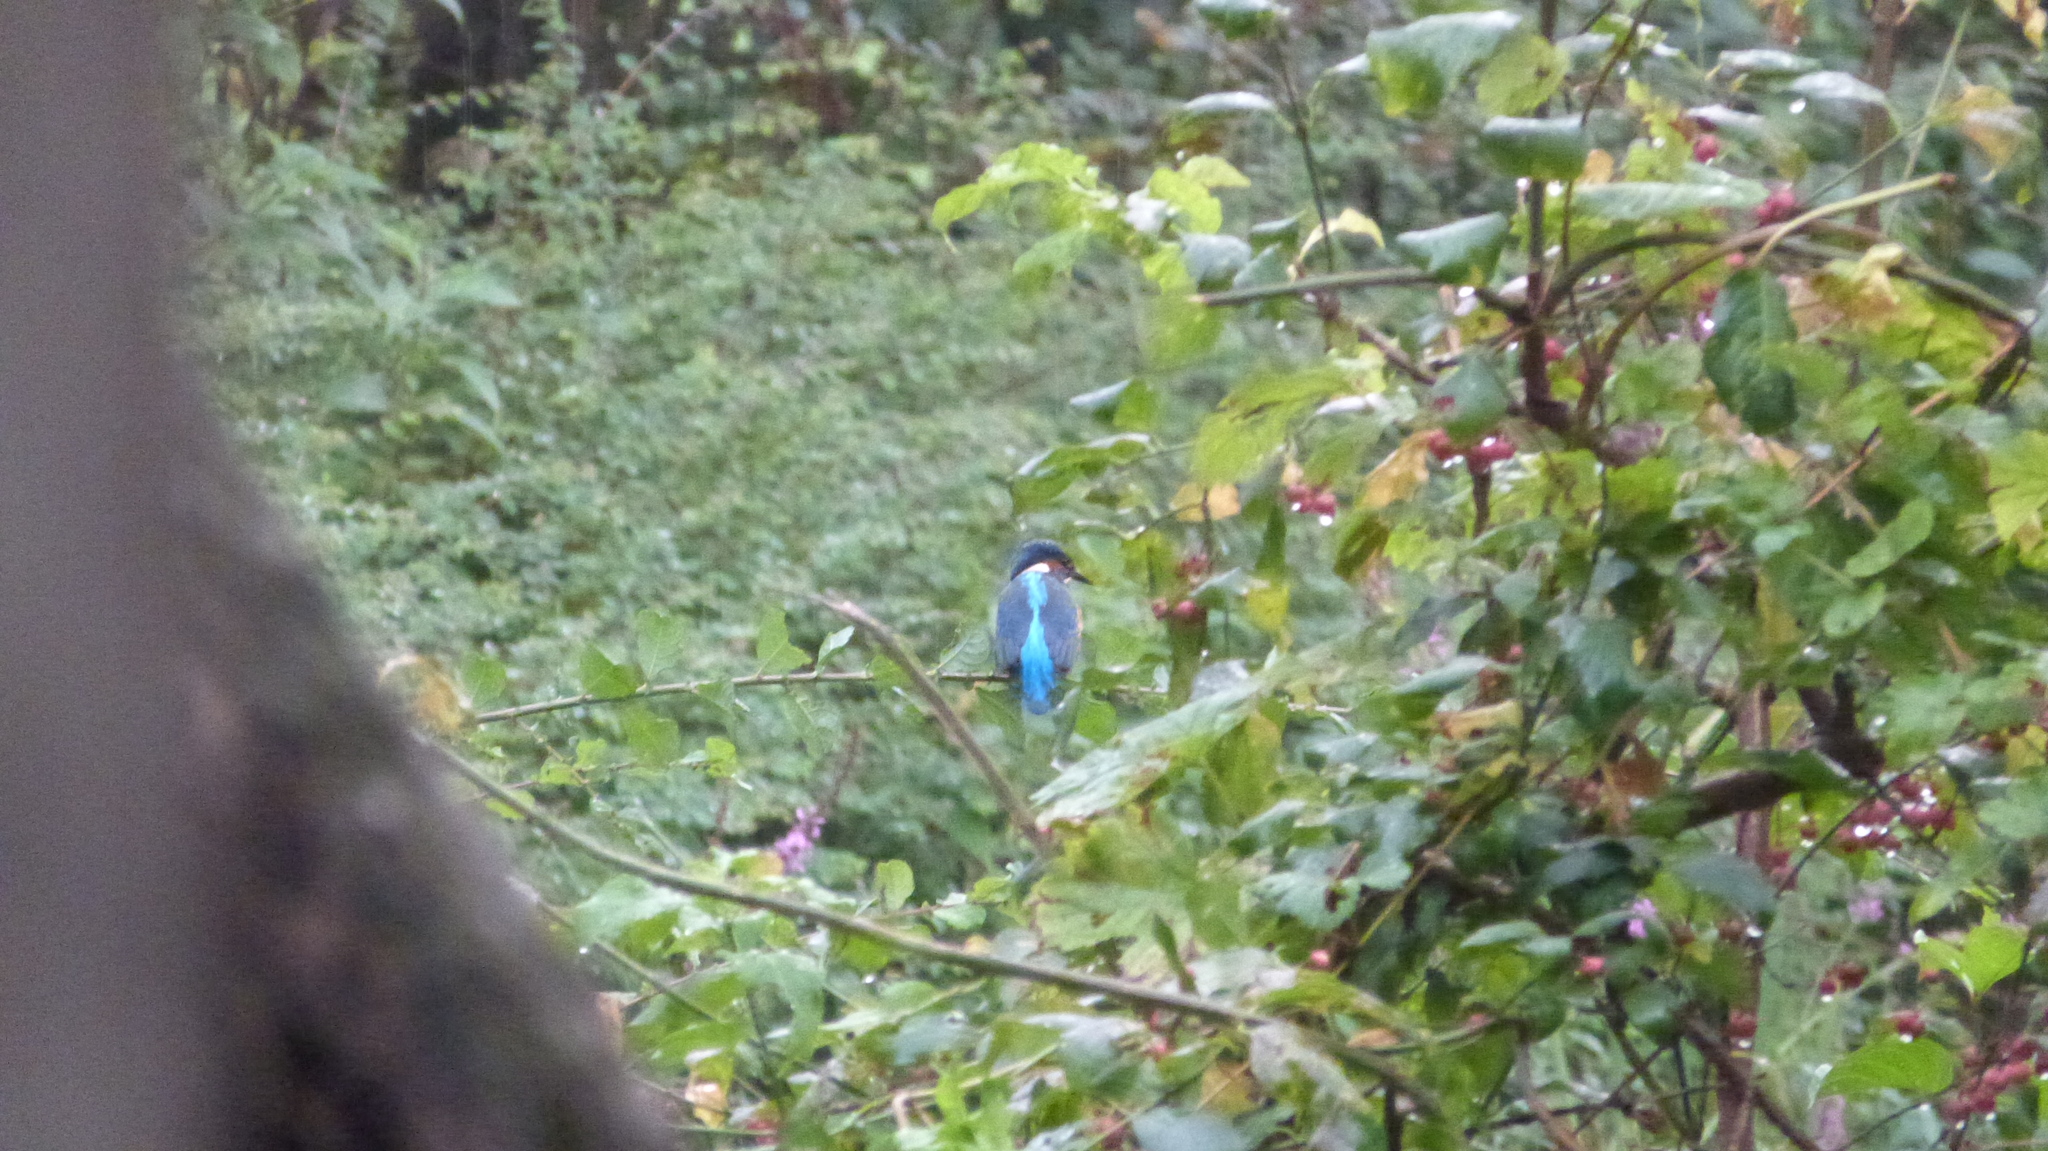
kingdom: Animalia
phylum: Chordata
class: Aves
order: Coraciiformes
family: Alcedinidae
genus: Alcedo
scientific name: Alcedo atthis
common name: Common kingfisher
